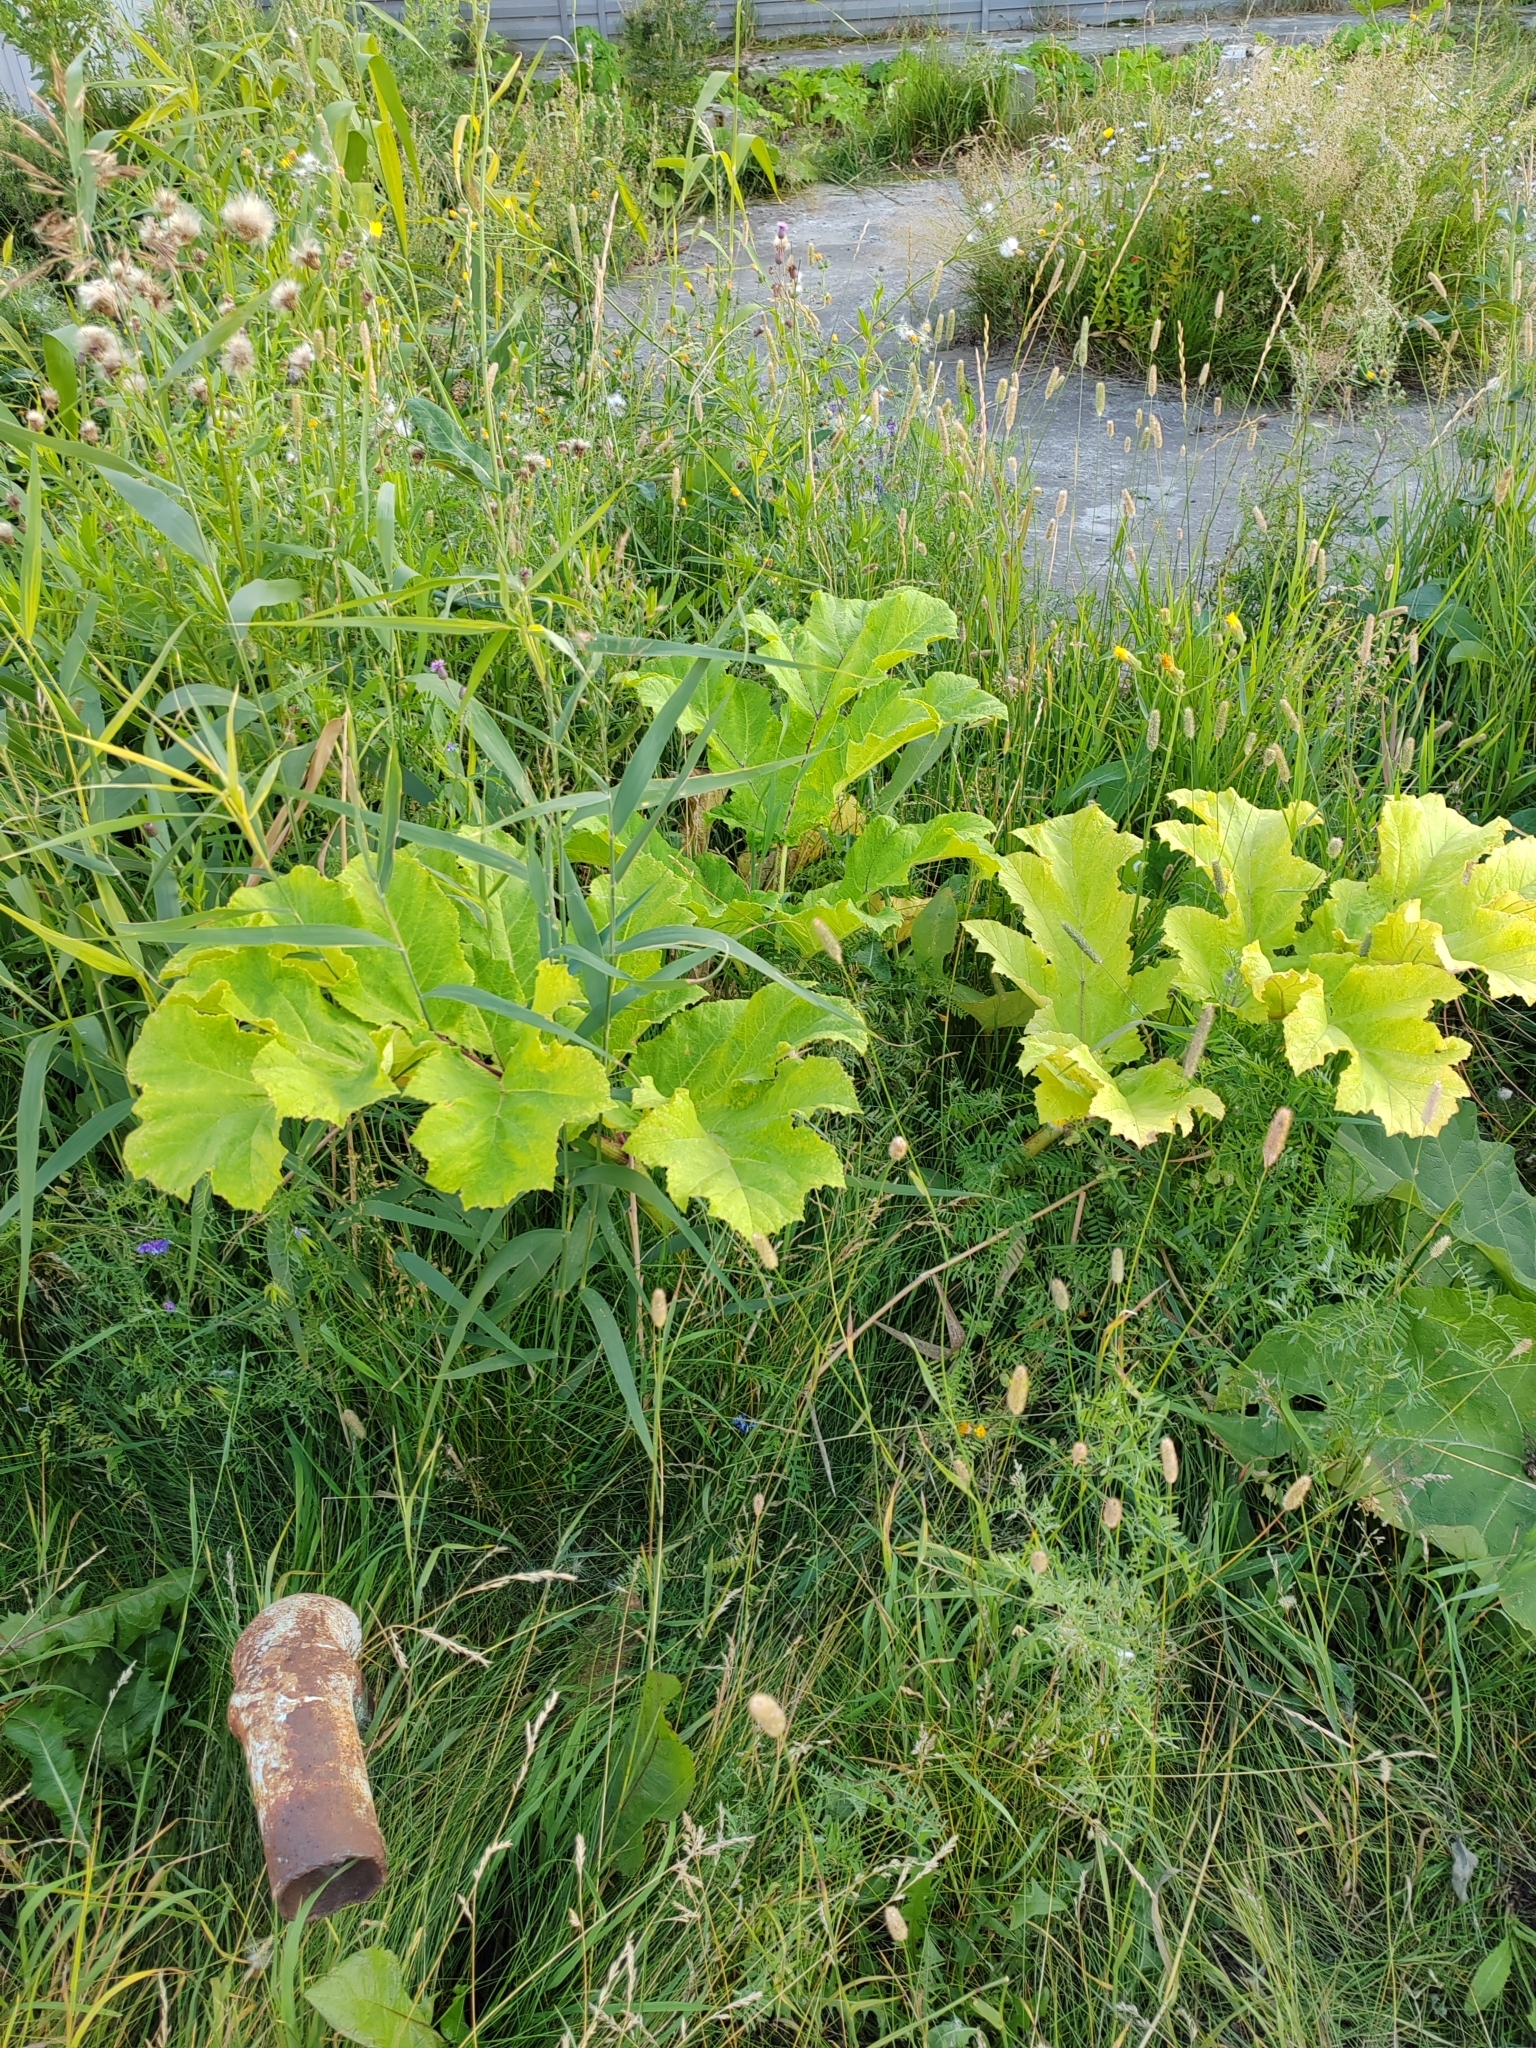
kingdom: Plantae
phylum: Tracheophyta
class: Magnoliopsida
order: Apiales
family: Apiaceae
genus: Heracleum
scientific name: Heracleum sosnowskyi
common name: Sosnowsky's hogweed
